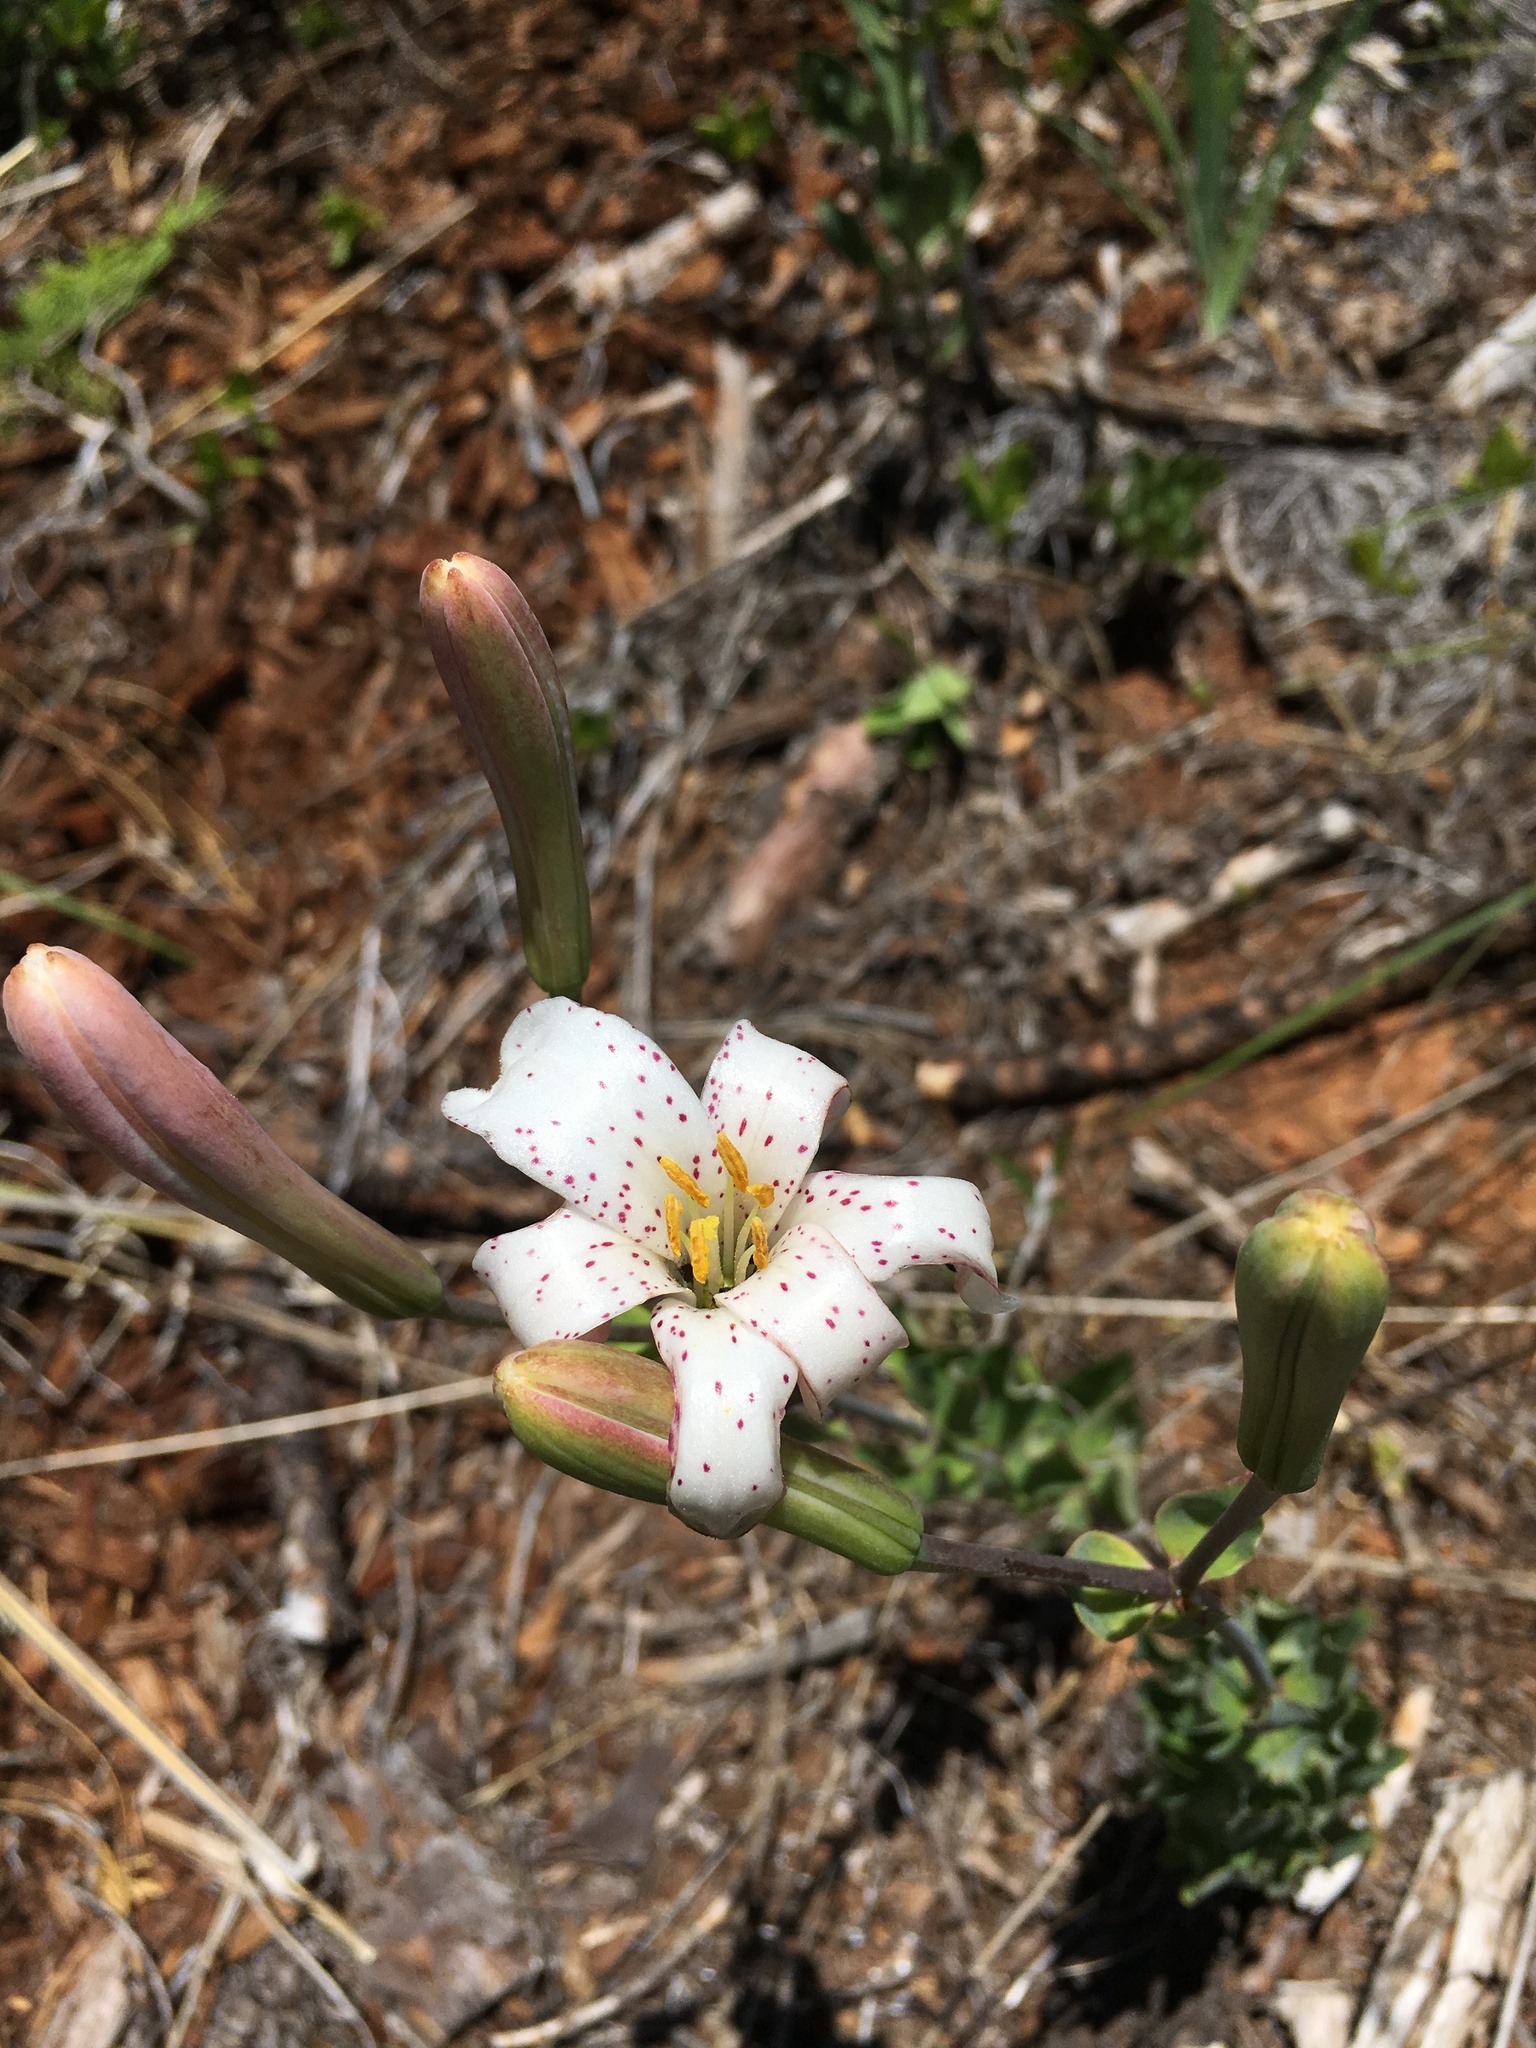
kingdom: Plantae
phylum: Tracheophyta
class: Liliopsida
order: Liliales
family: Liliaceae
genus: Lilium
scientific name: Lilium rubescens
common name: Chamise lily
